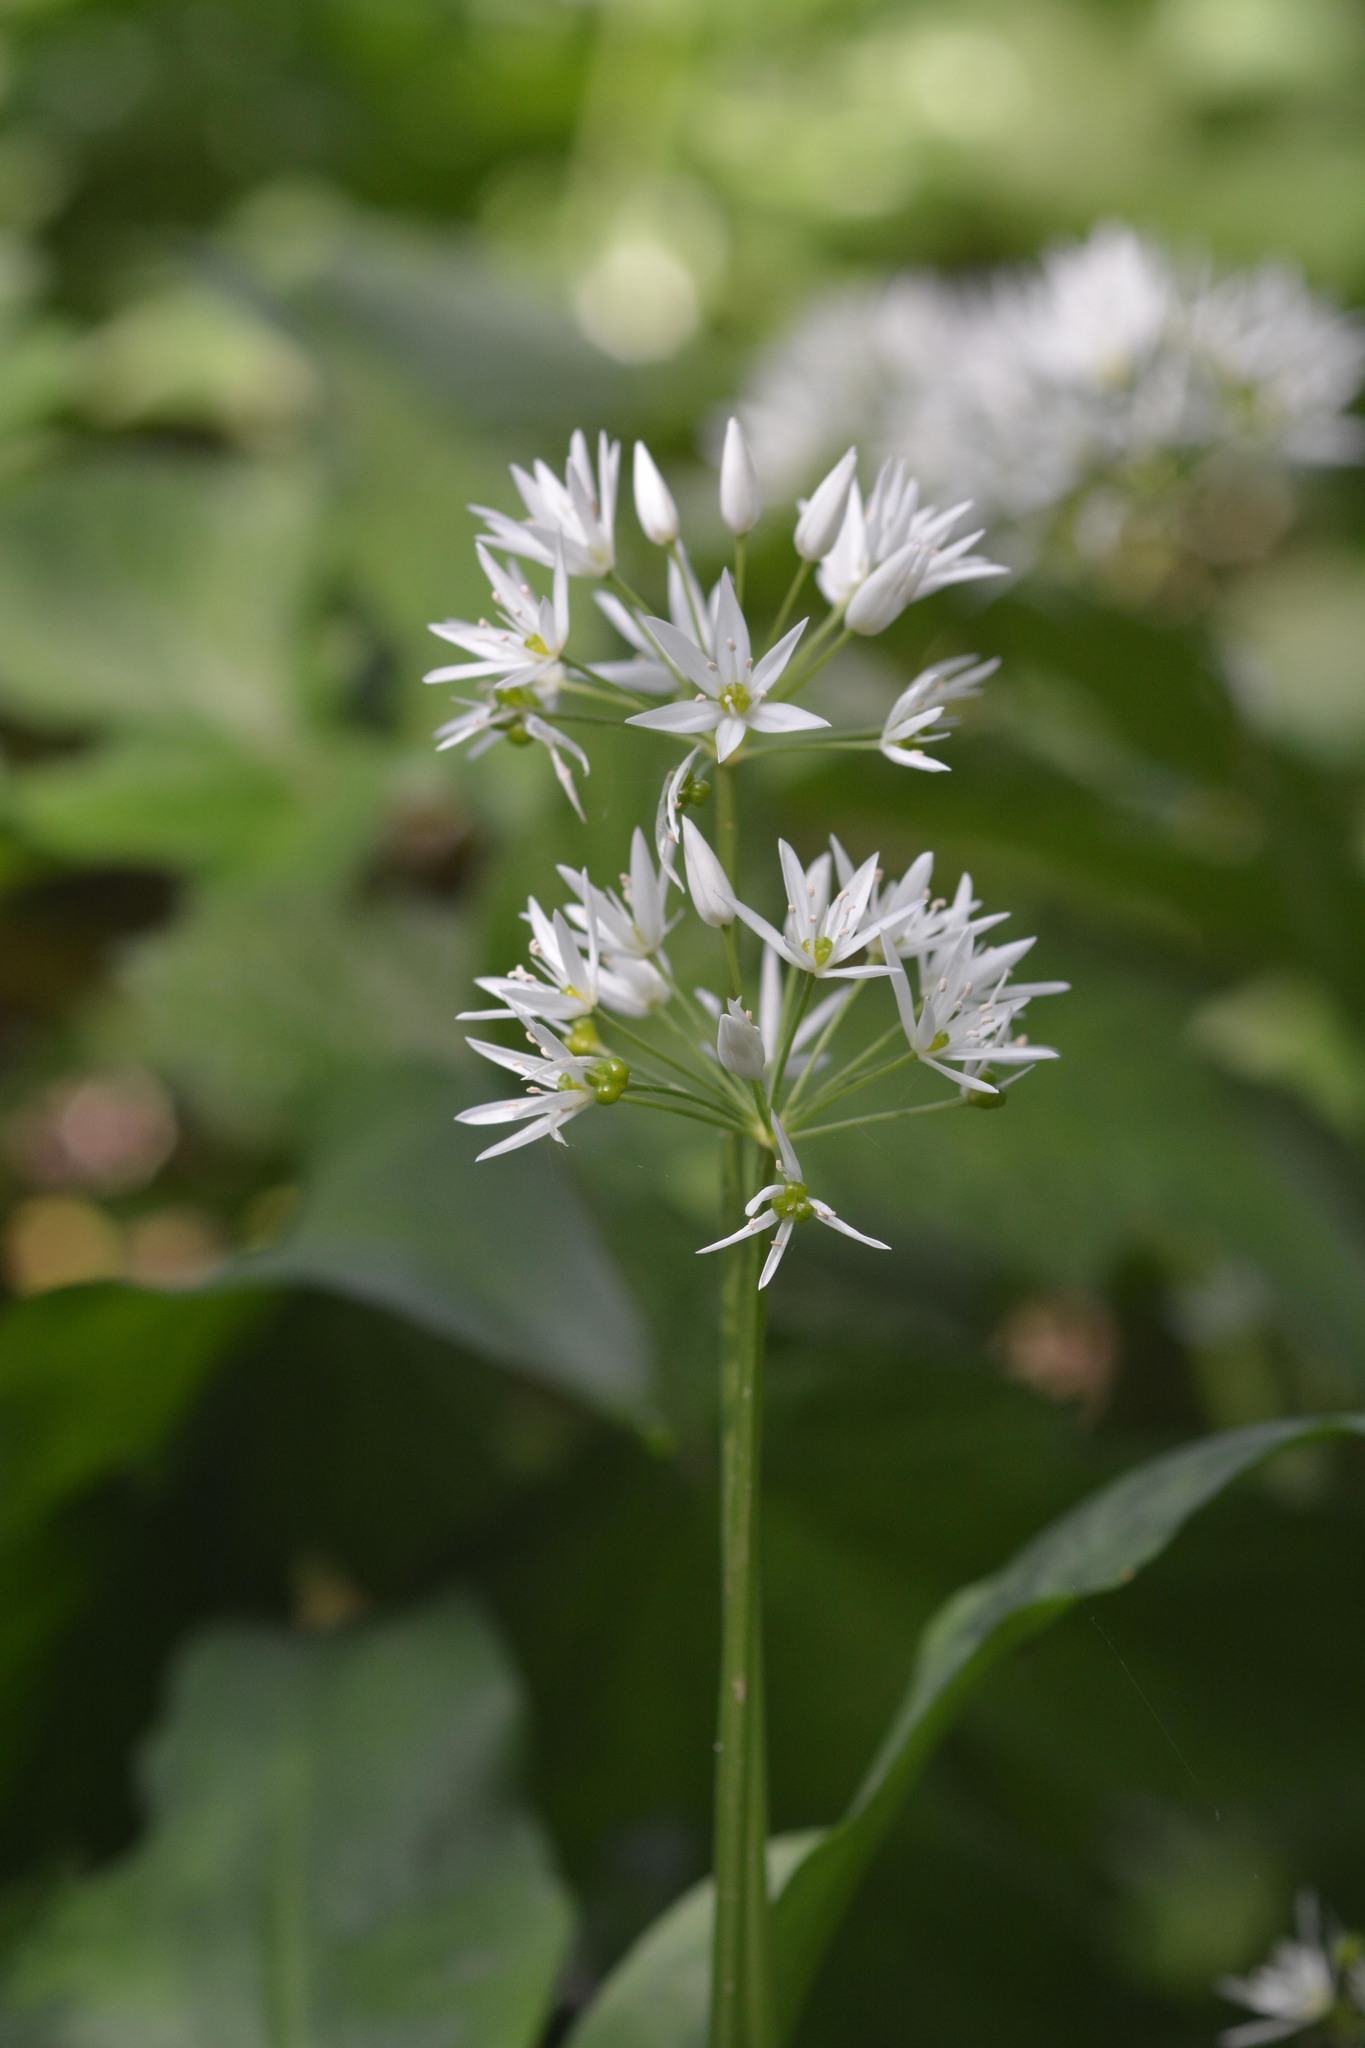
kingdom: Plantae
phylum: Tracheophyta
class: Liliopsida
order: Asparagales
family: Amaryllidaceae
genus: Allium
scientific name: Allium ursinum
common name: Ramsons
